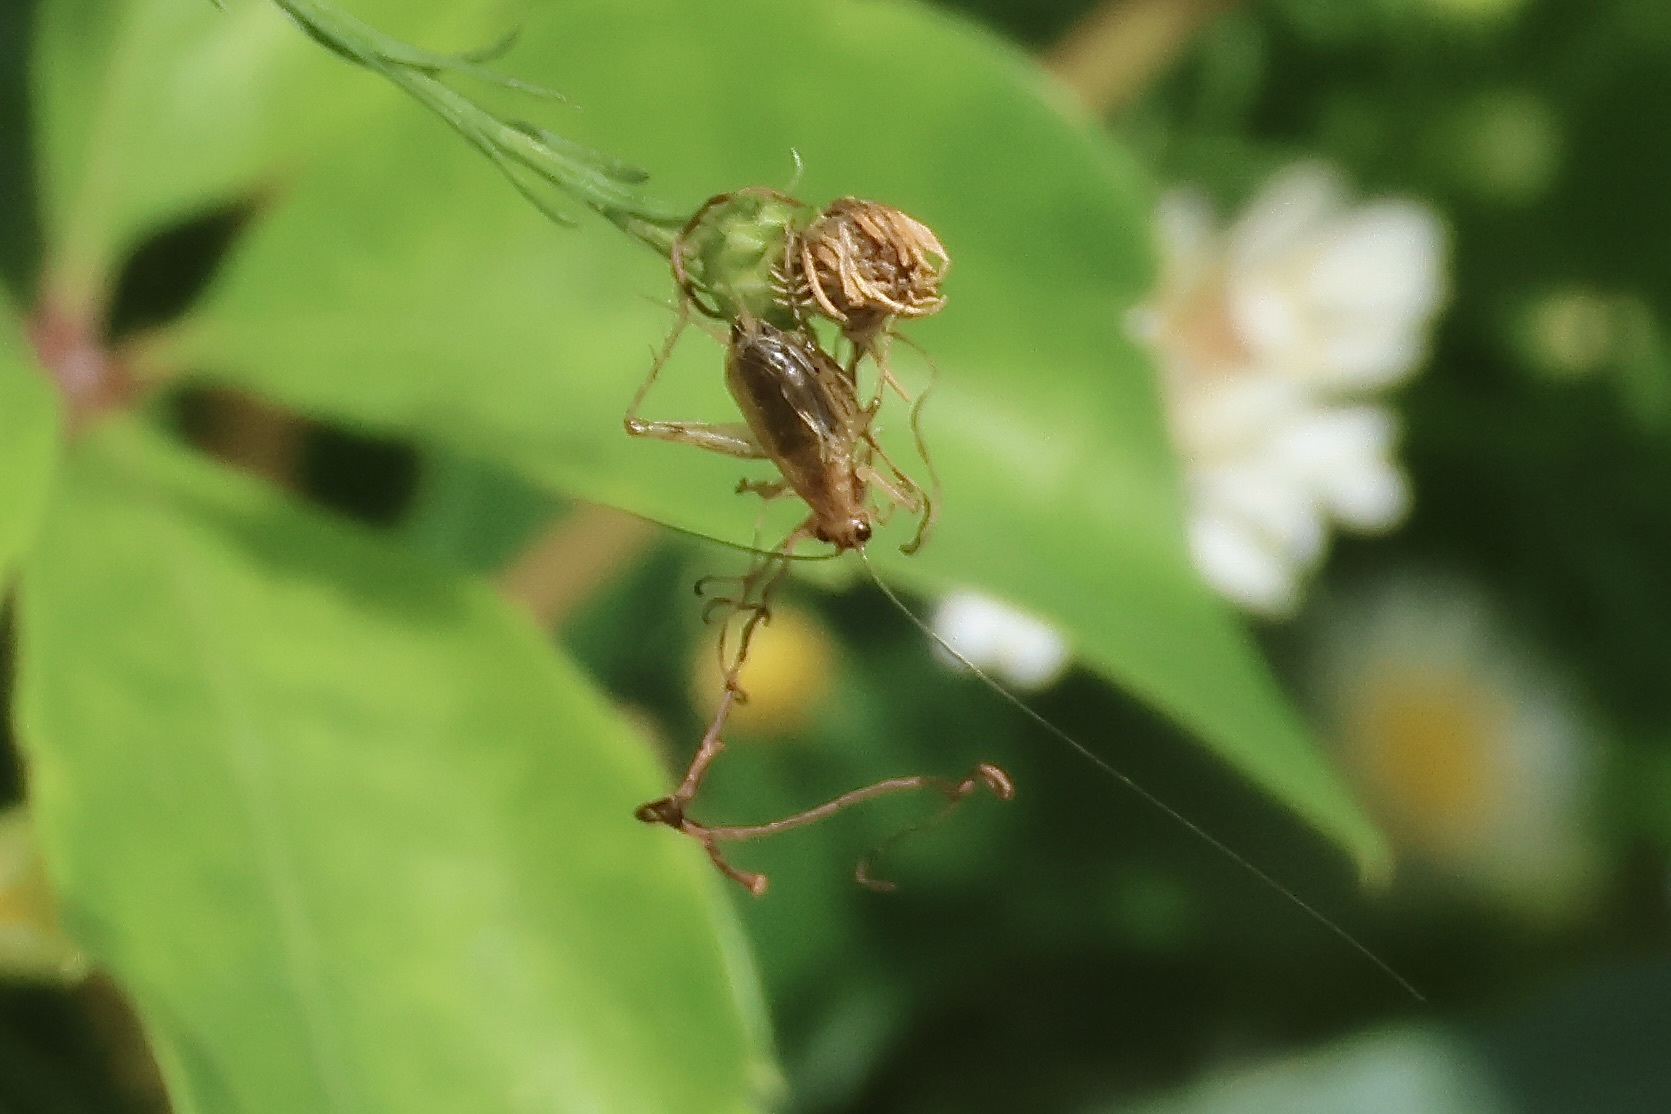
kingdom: Animalia
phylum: Arthropoda
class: Insecta
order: Orthoptera
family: Trigonidiidae
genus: Anaxipha
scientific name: Anaxipha exigua
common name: Say's bush cricket
